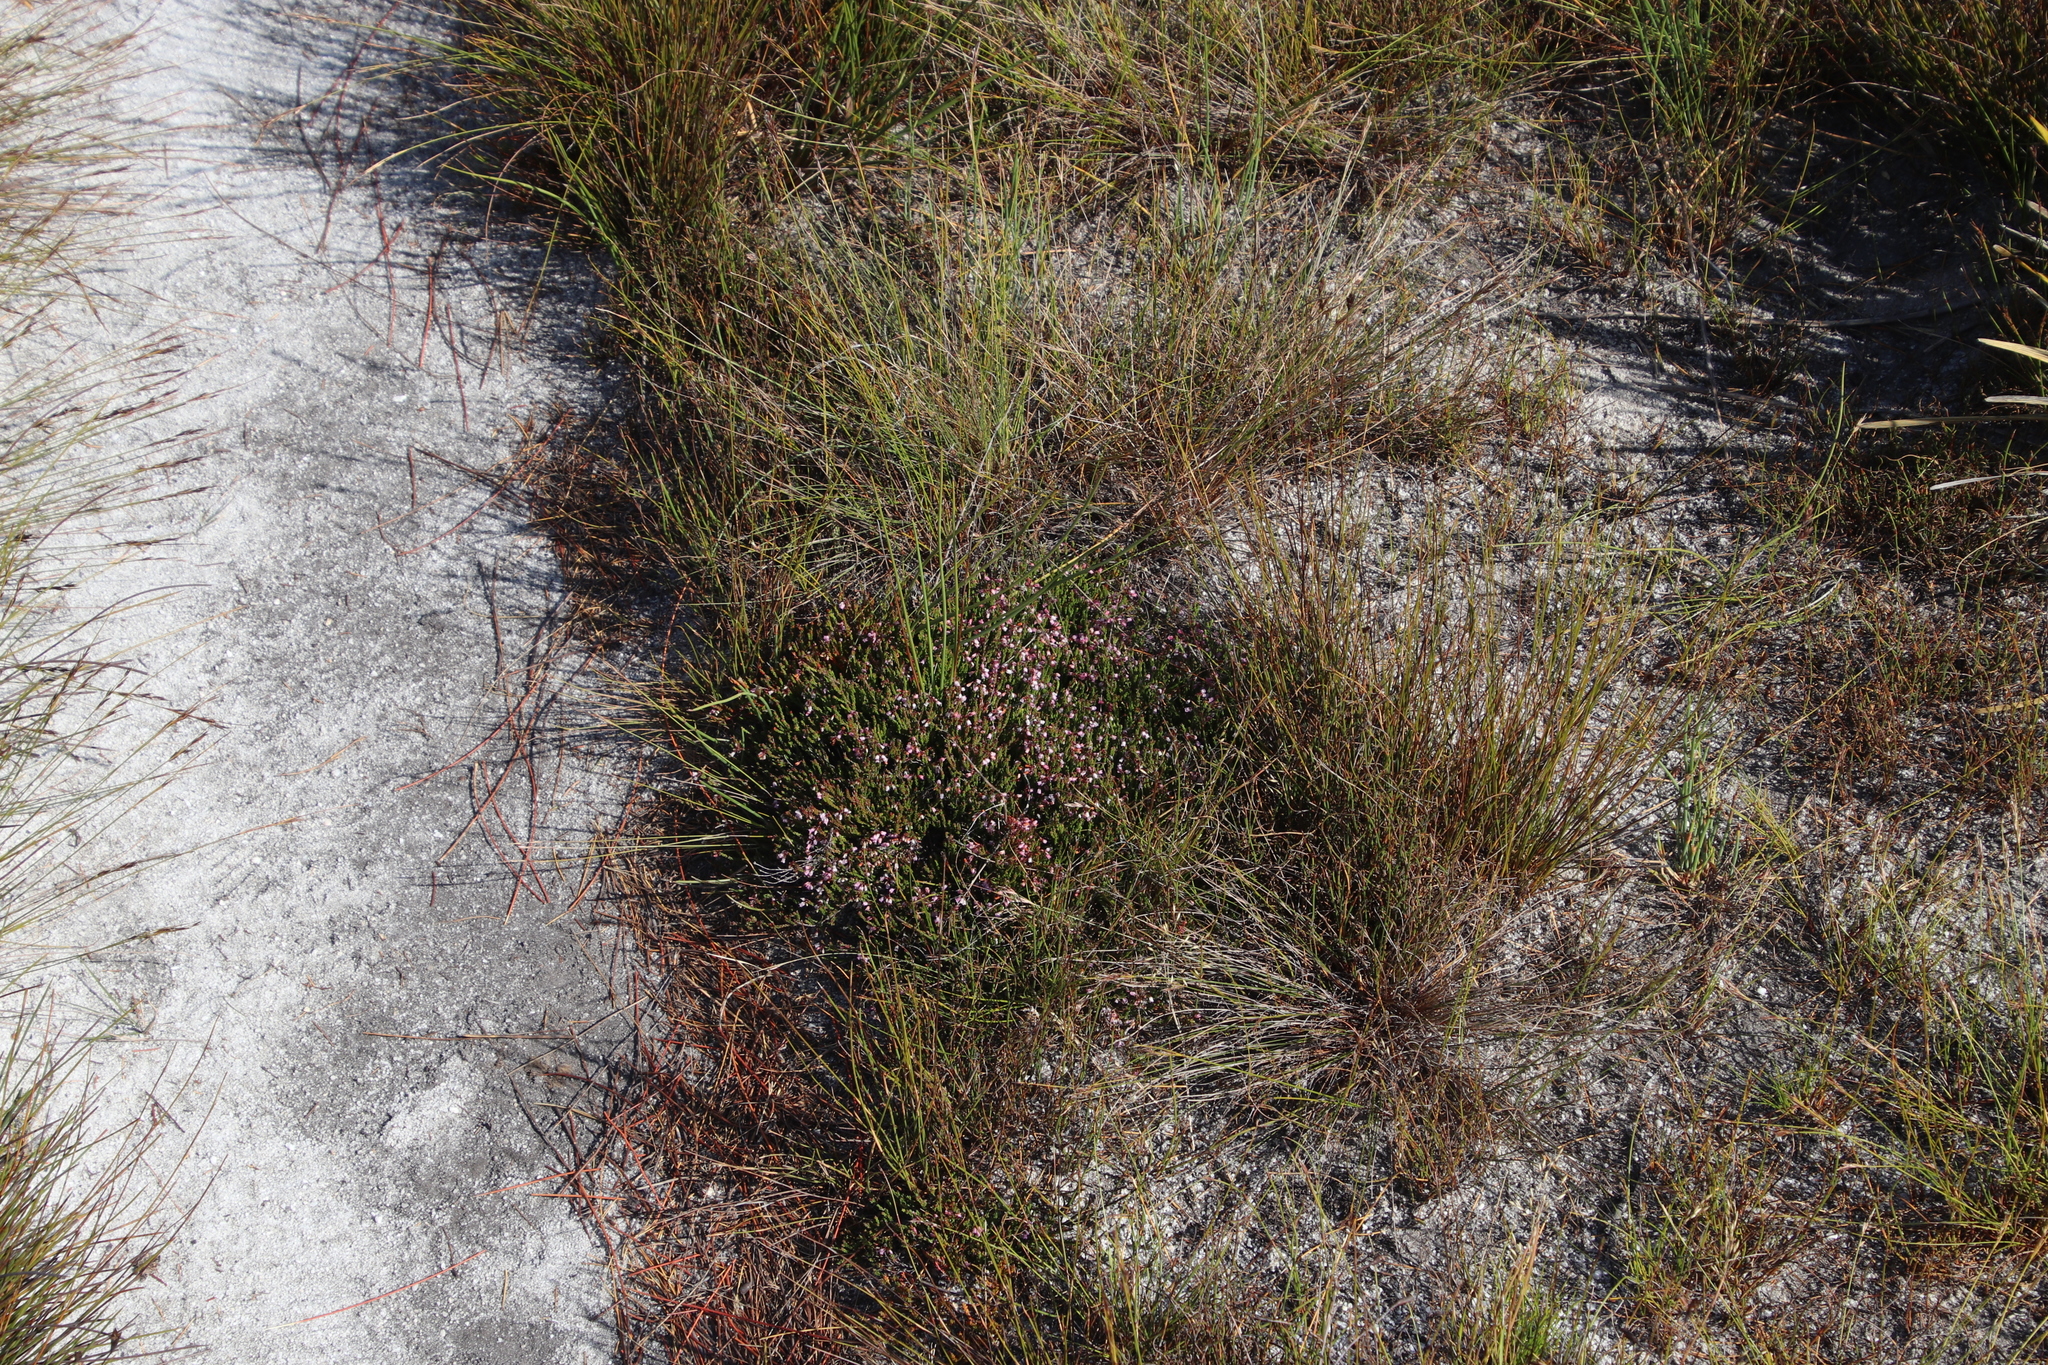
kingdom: Plantae
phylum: Tracheophyta
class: Magnoliopsida
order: Ericales
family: Ericaceae
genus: Erica
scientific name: Erica articularis
